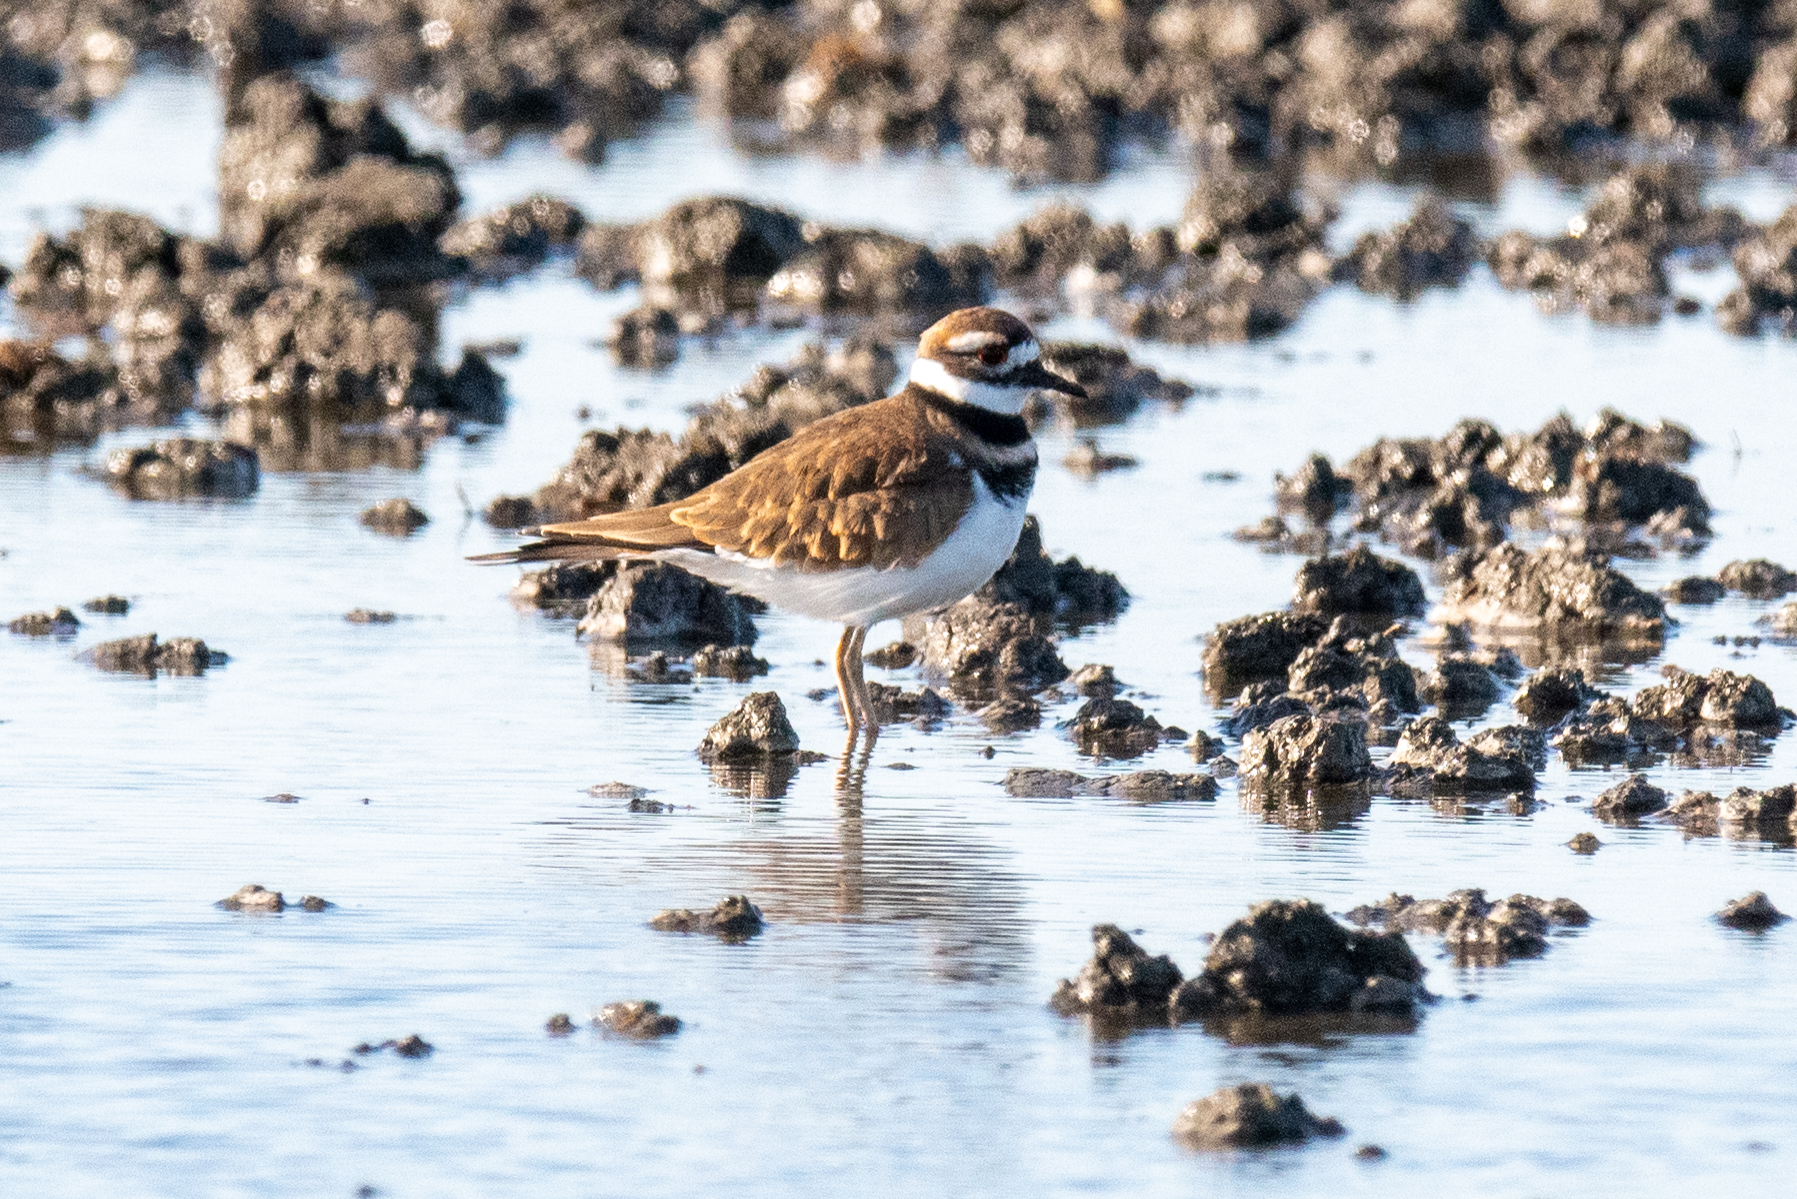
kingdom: Animalia
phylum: Chordata
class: Aves
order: Charadriiformes
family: Charadriidae
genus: Charadrius
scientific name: Charadrius vociferus
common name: Killdeer
